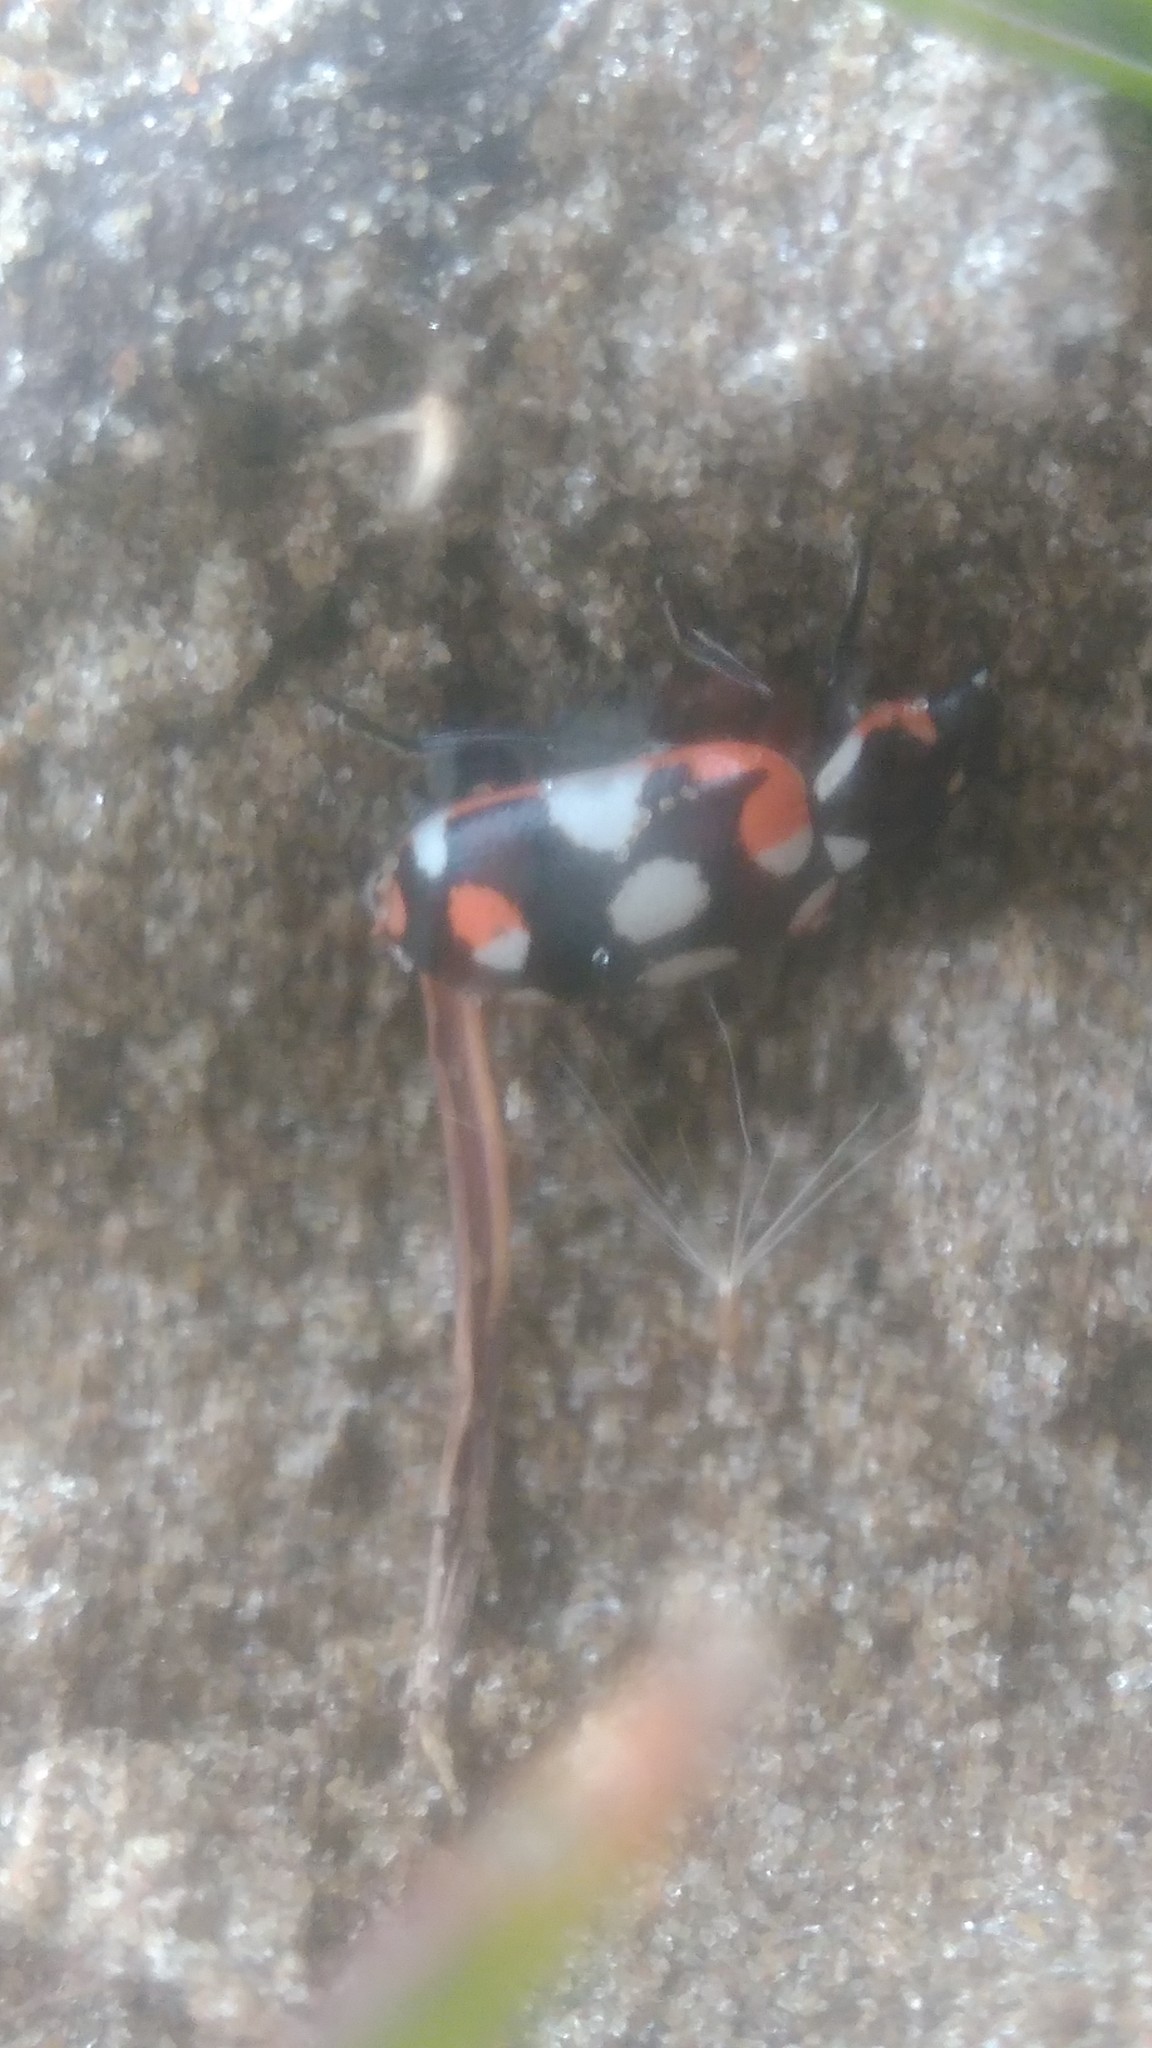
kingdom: Animalia
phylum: Arthropoda
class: Insecta
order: Coleoptera
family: Coccinellidae
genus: Eriopis
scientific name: Eriopis connexa
